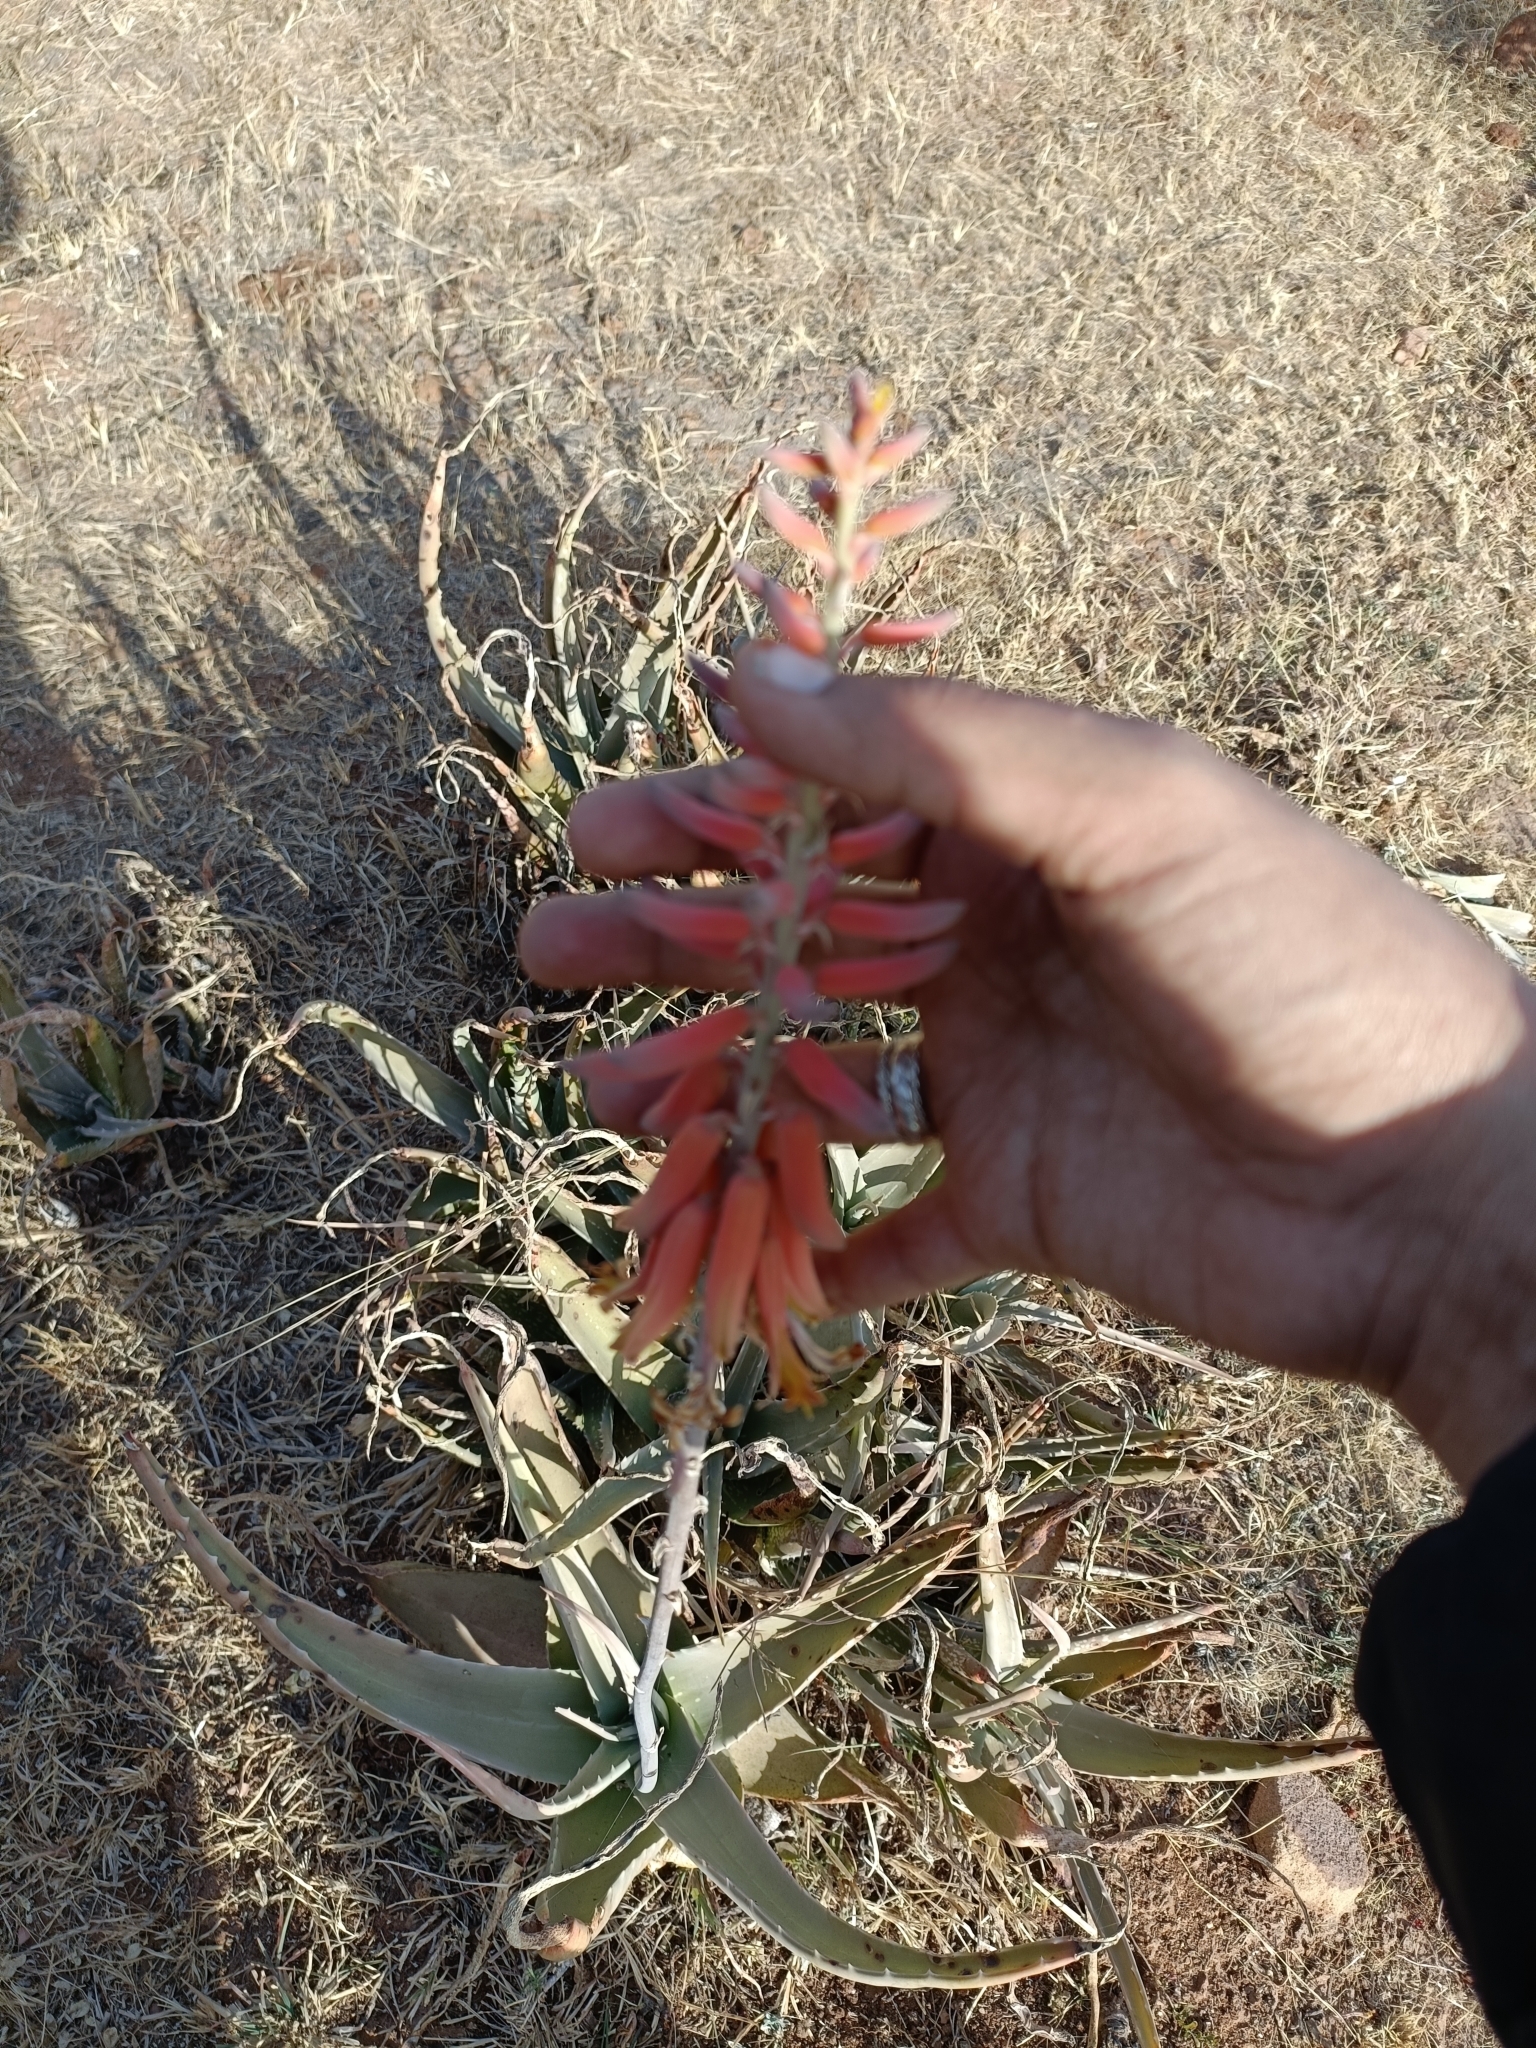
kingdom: Plantae
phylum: Tracheophyta
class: Liliopsida
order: Asparagales
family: Asphodelaceae
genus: Aloe
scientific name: Aloe vera
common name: Barbados aloe
